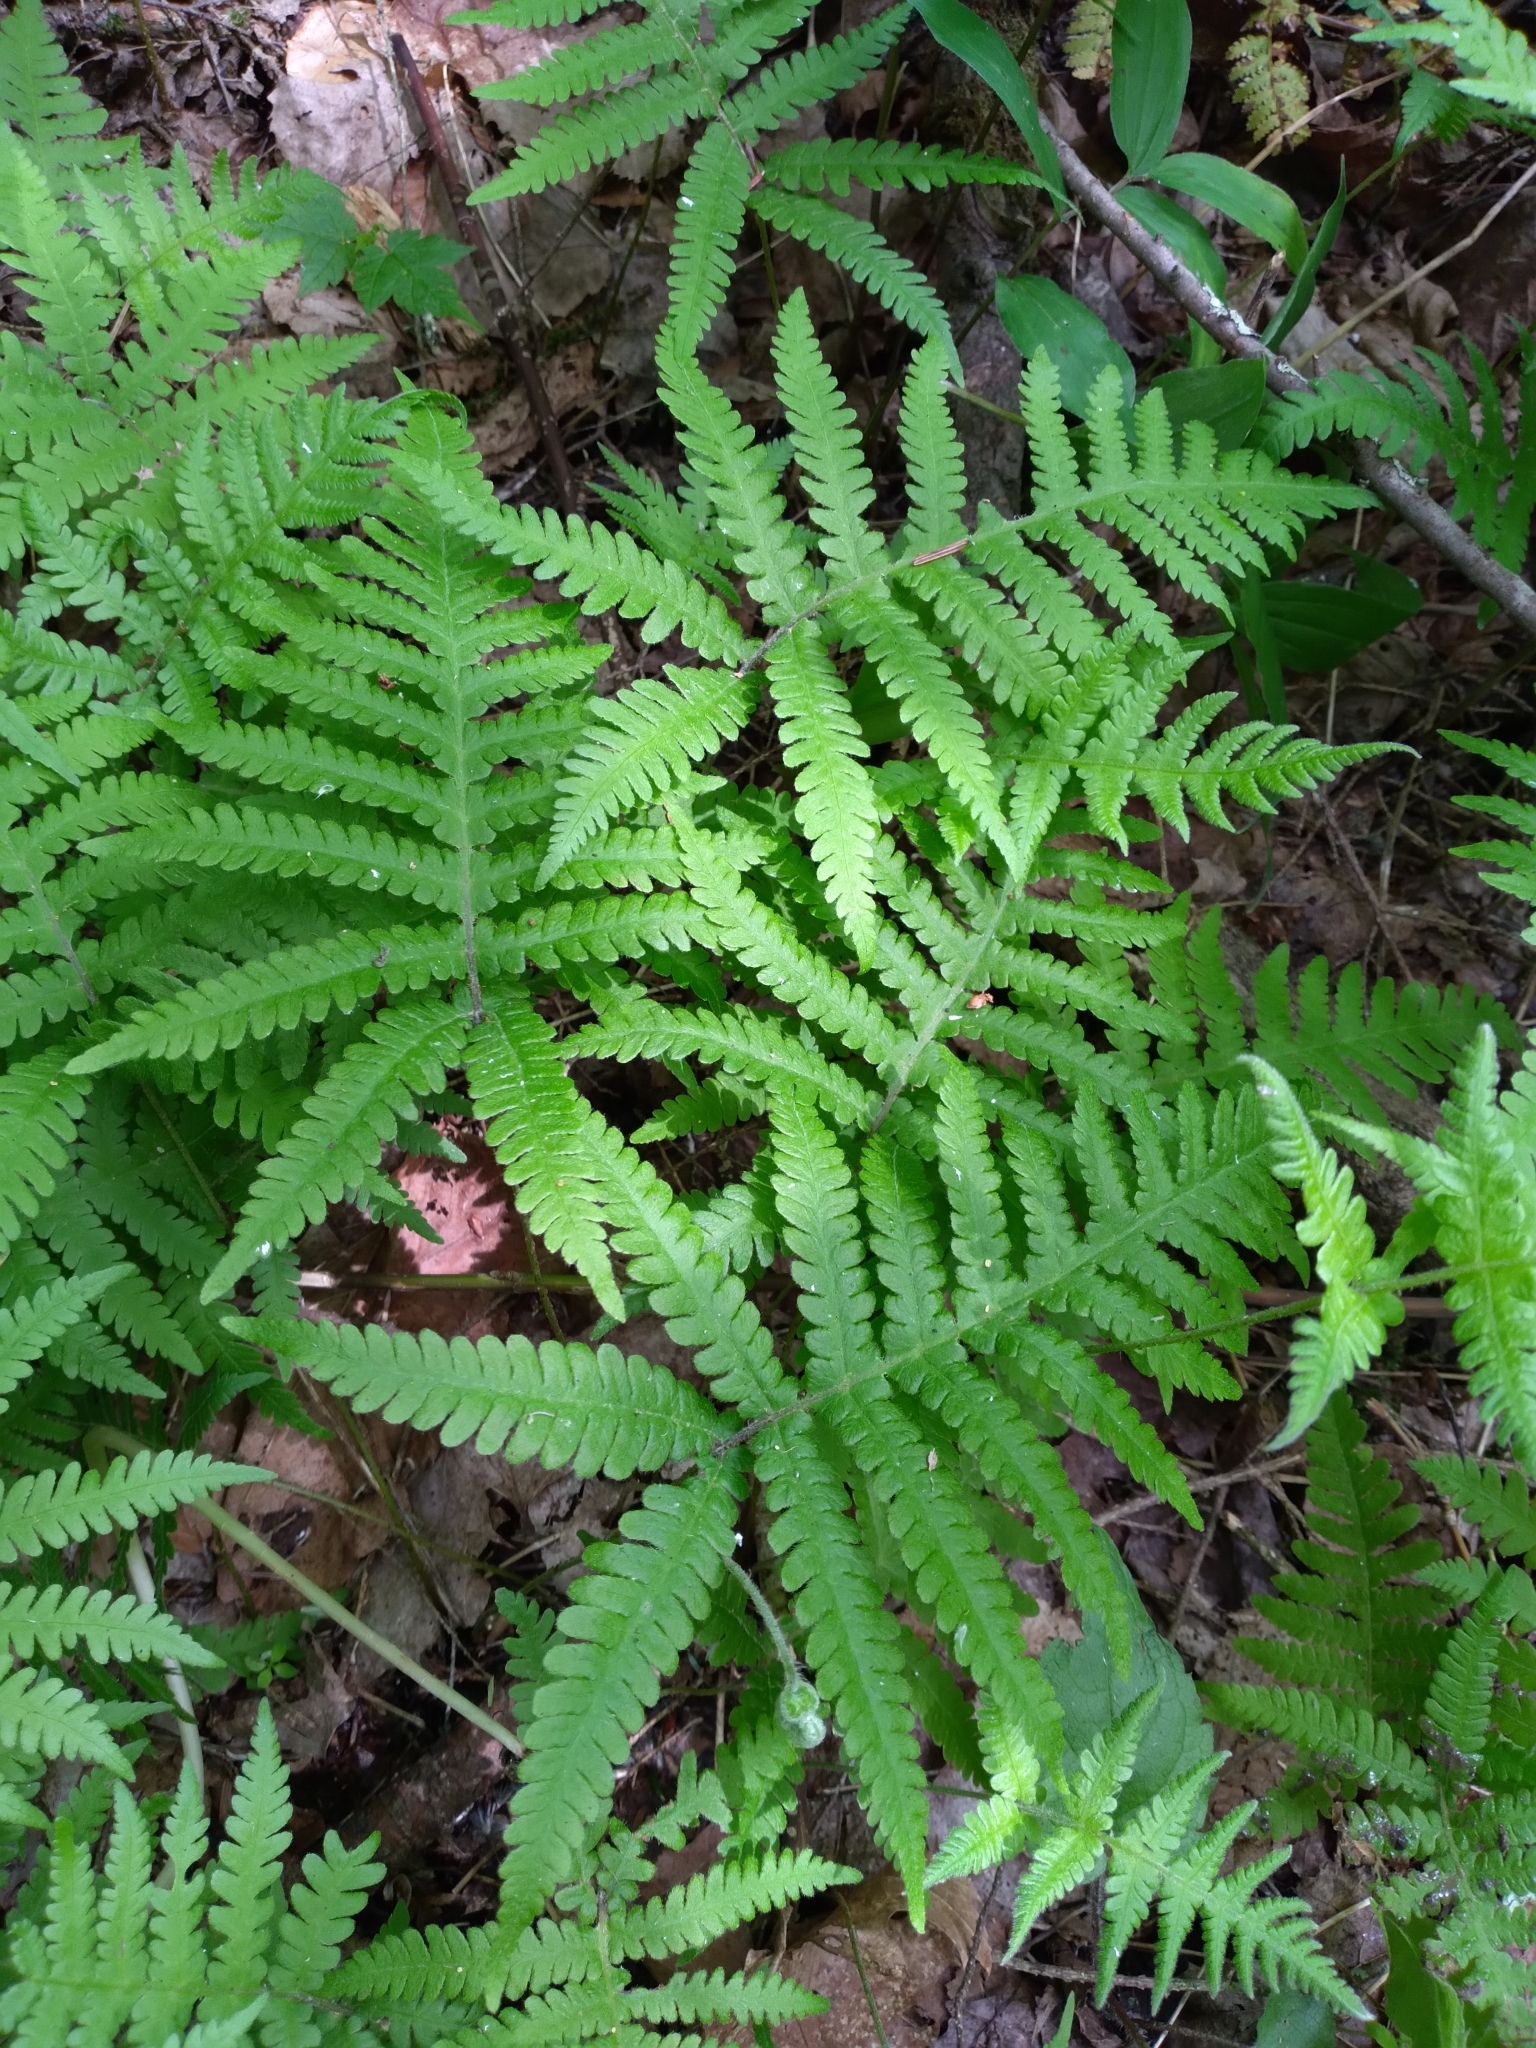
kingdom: Plantae
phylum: Tracheophyta
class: Polypodiopsida
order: Polypodiales
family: Thelypteridaceae
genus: Phegopteris
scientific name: Phegopteris connectilis
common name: Beech fern
